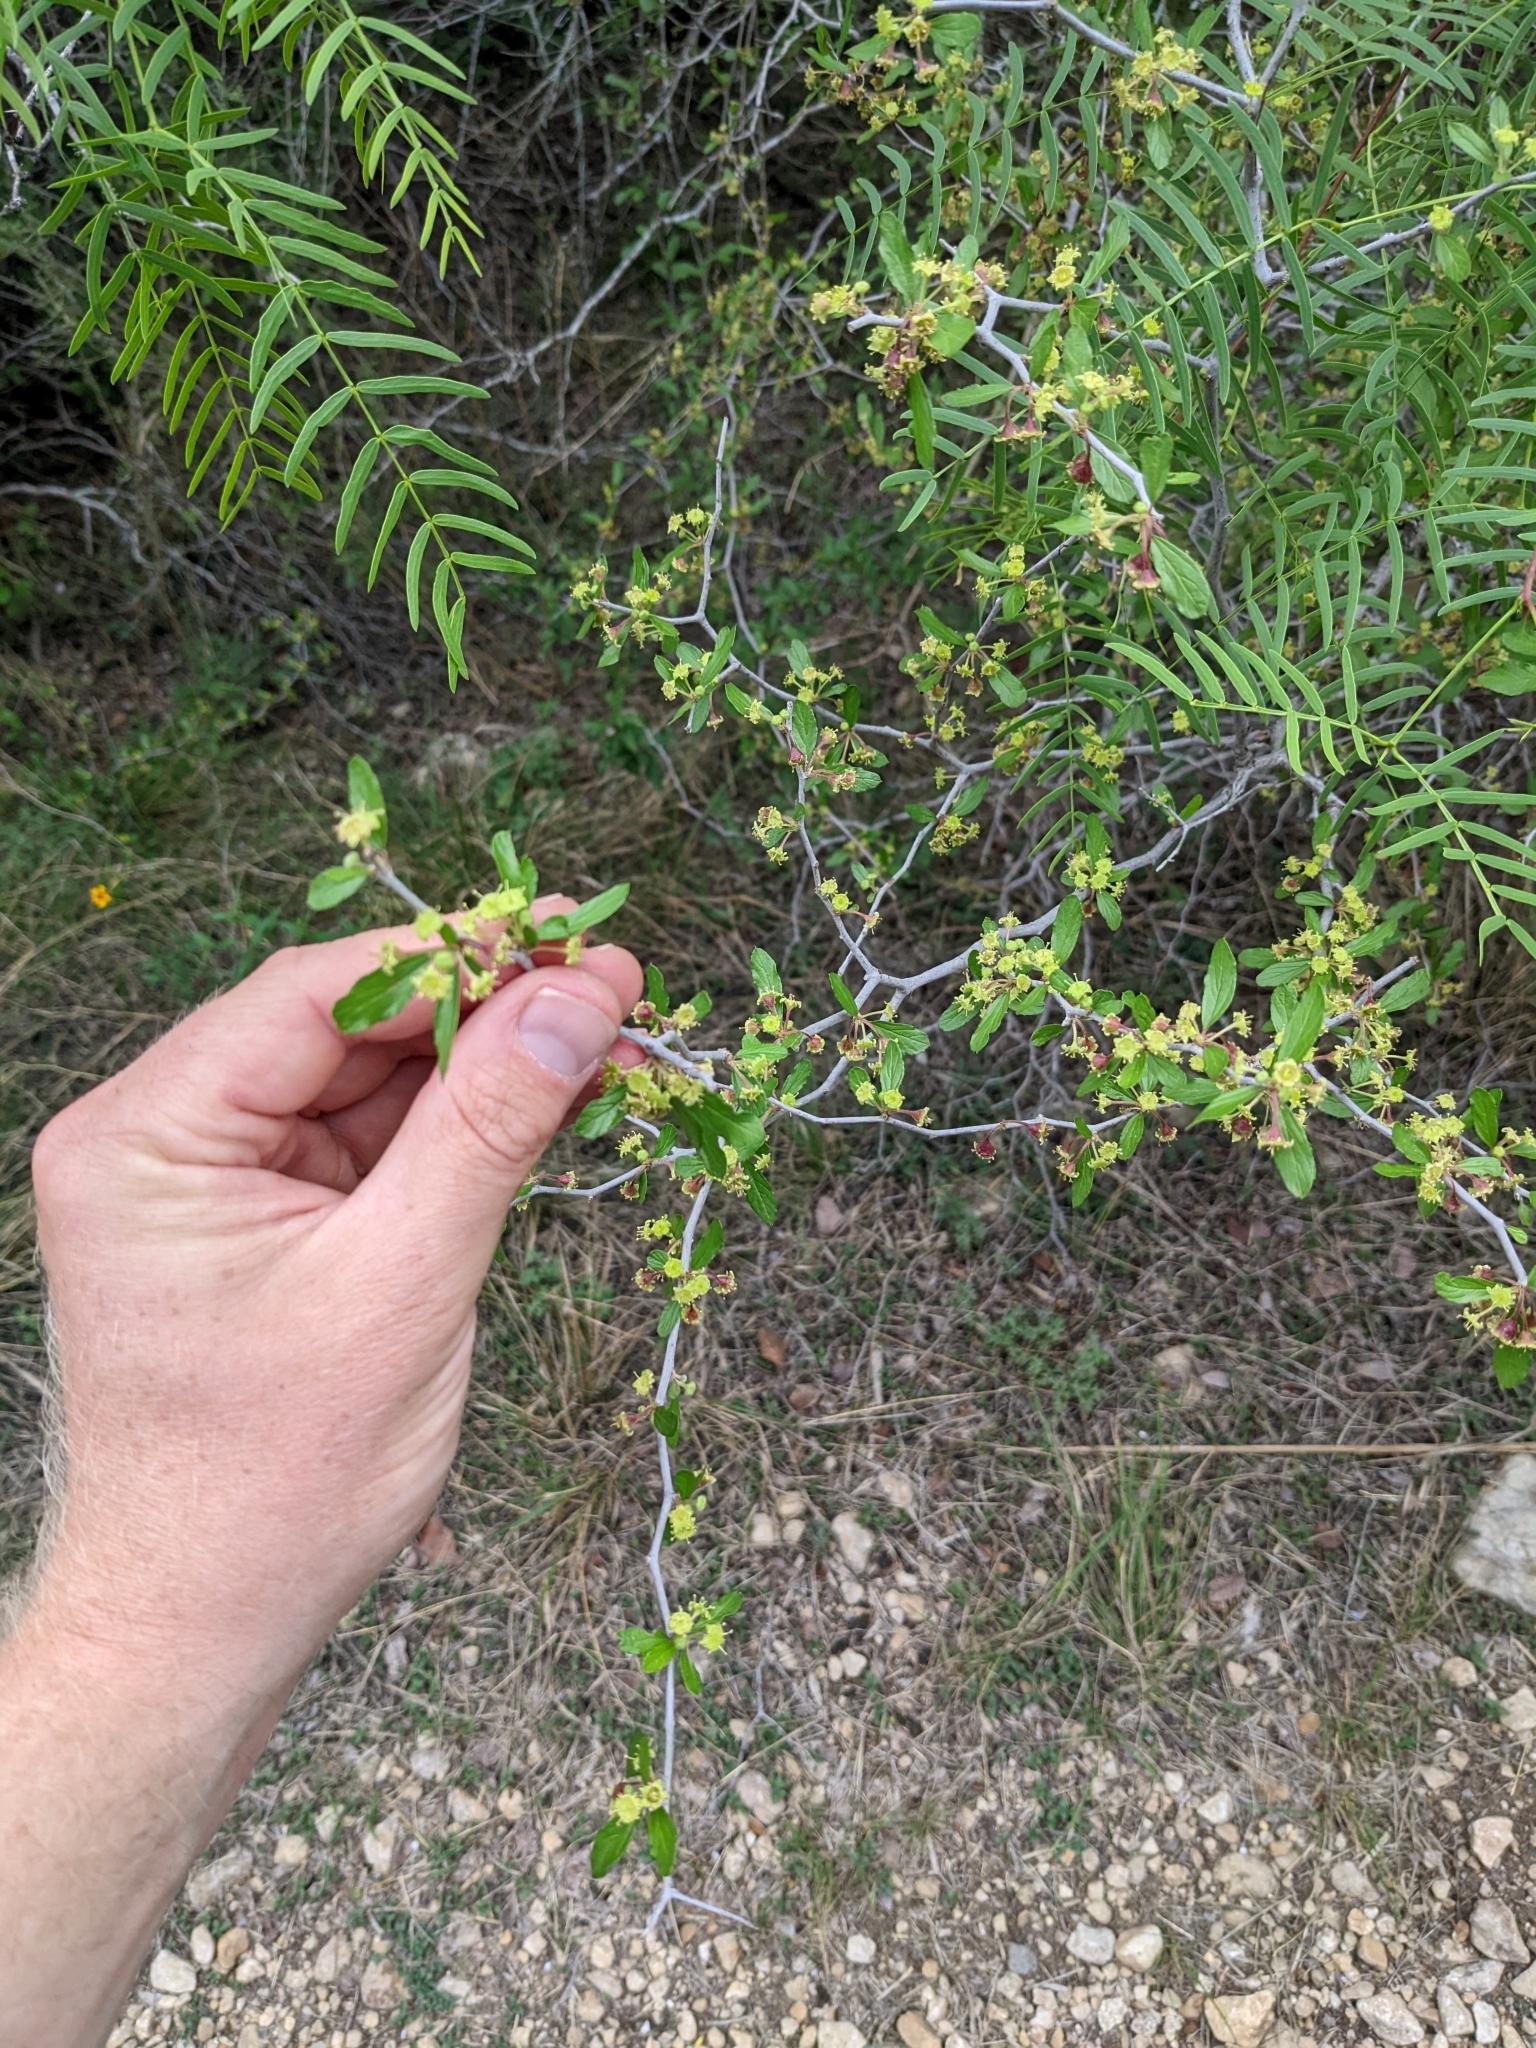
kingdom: Plantae
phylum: Tracheophyta
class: Magnoliopsida
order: Rosales
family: Rhamnaceae
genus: Colubrina
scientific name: Colubrina texensis
